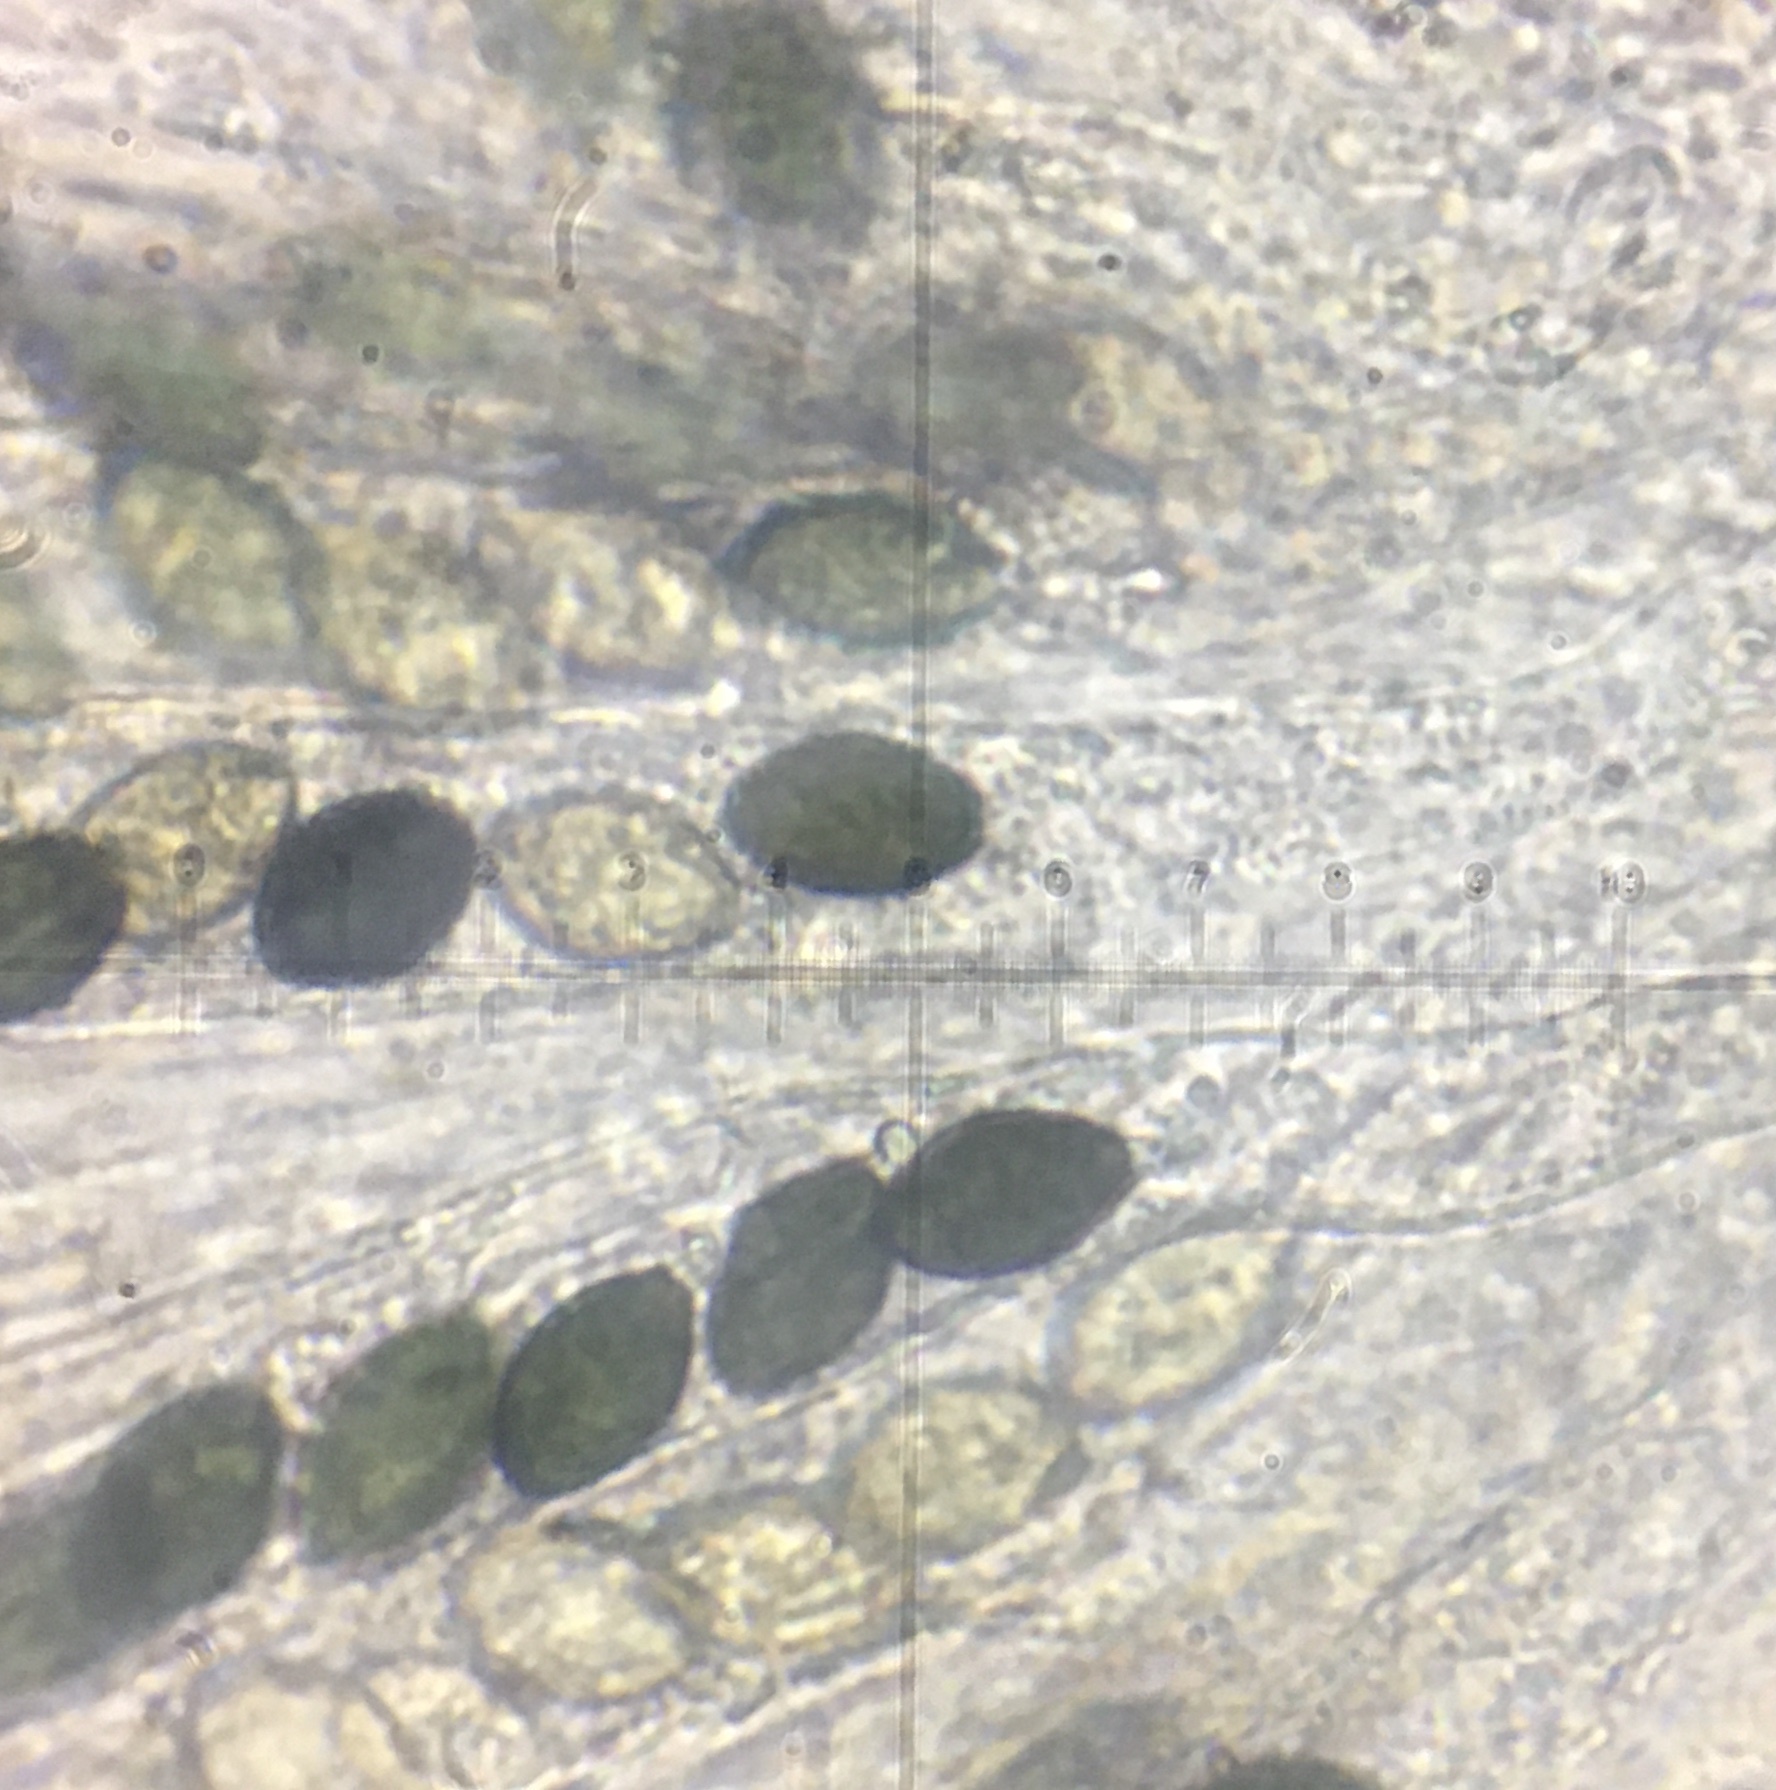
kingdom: Fungi
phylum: Ascomycota
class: Sordariomycetes
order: Sordariales
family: Lasiosphaeriaceae
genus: Schizothecium
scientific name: Schizothecium miniglutinans
